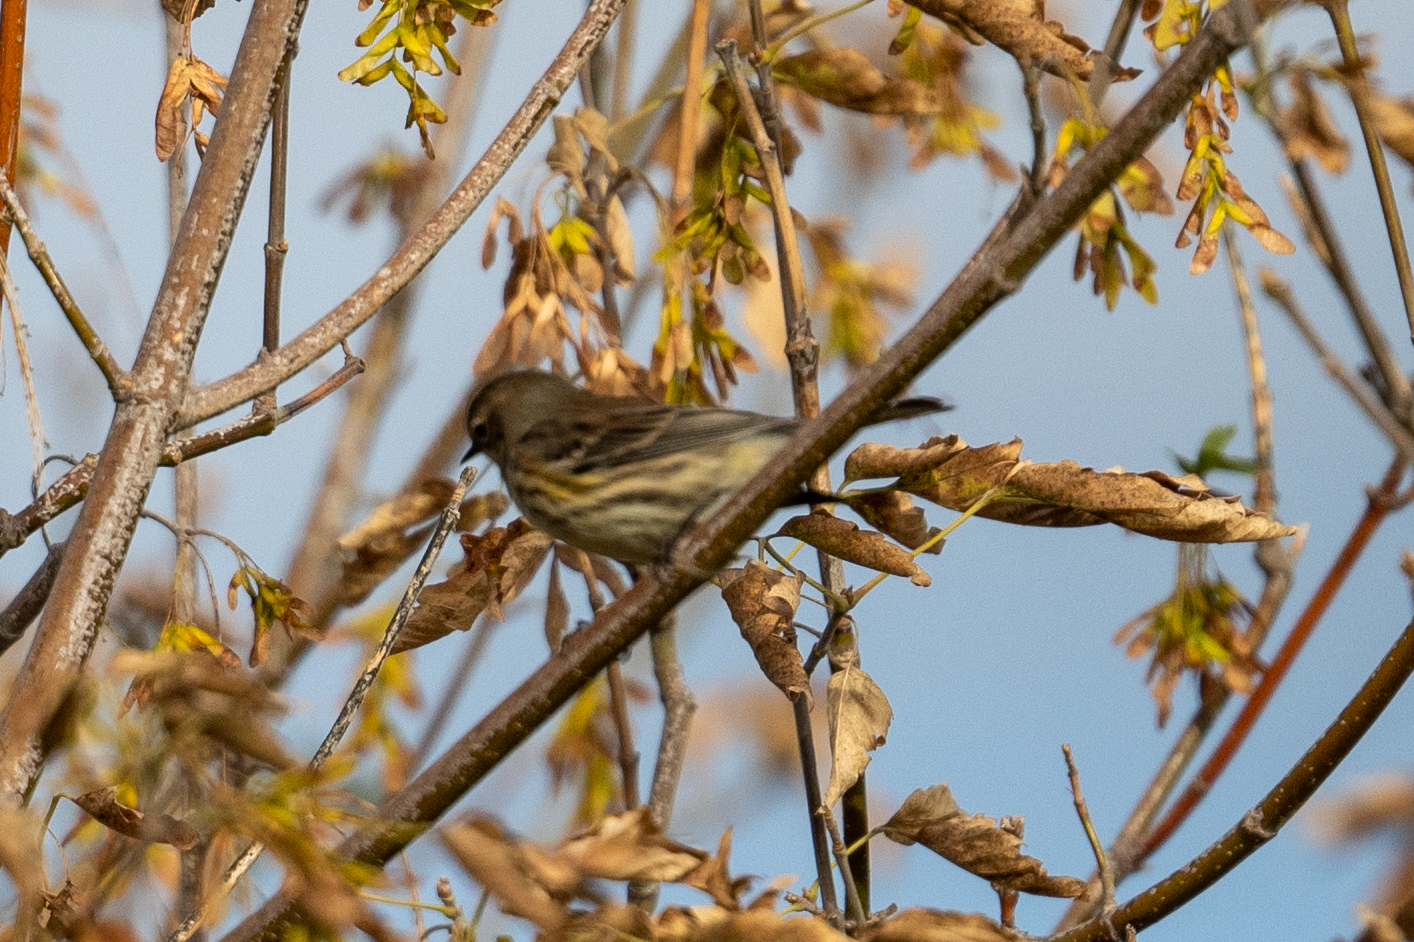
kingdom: Animalia
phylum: Chordata
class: Aves
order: Passeriformes
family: Parulidae
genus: Setophaga
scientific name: Setophaga coronata
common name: Myrtle warbler
